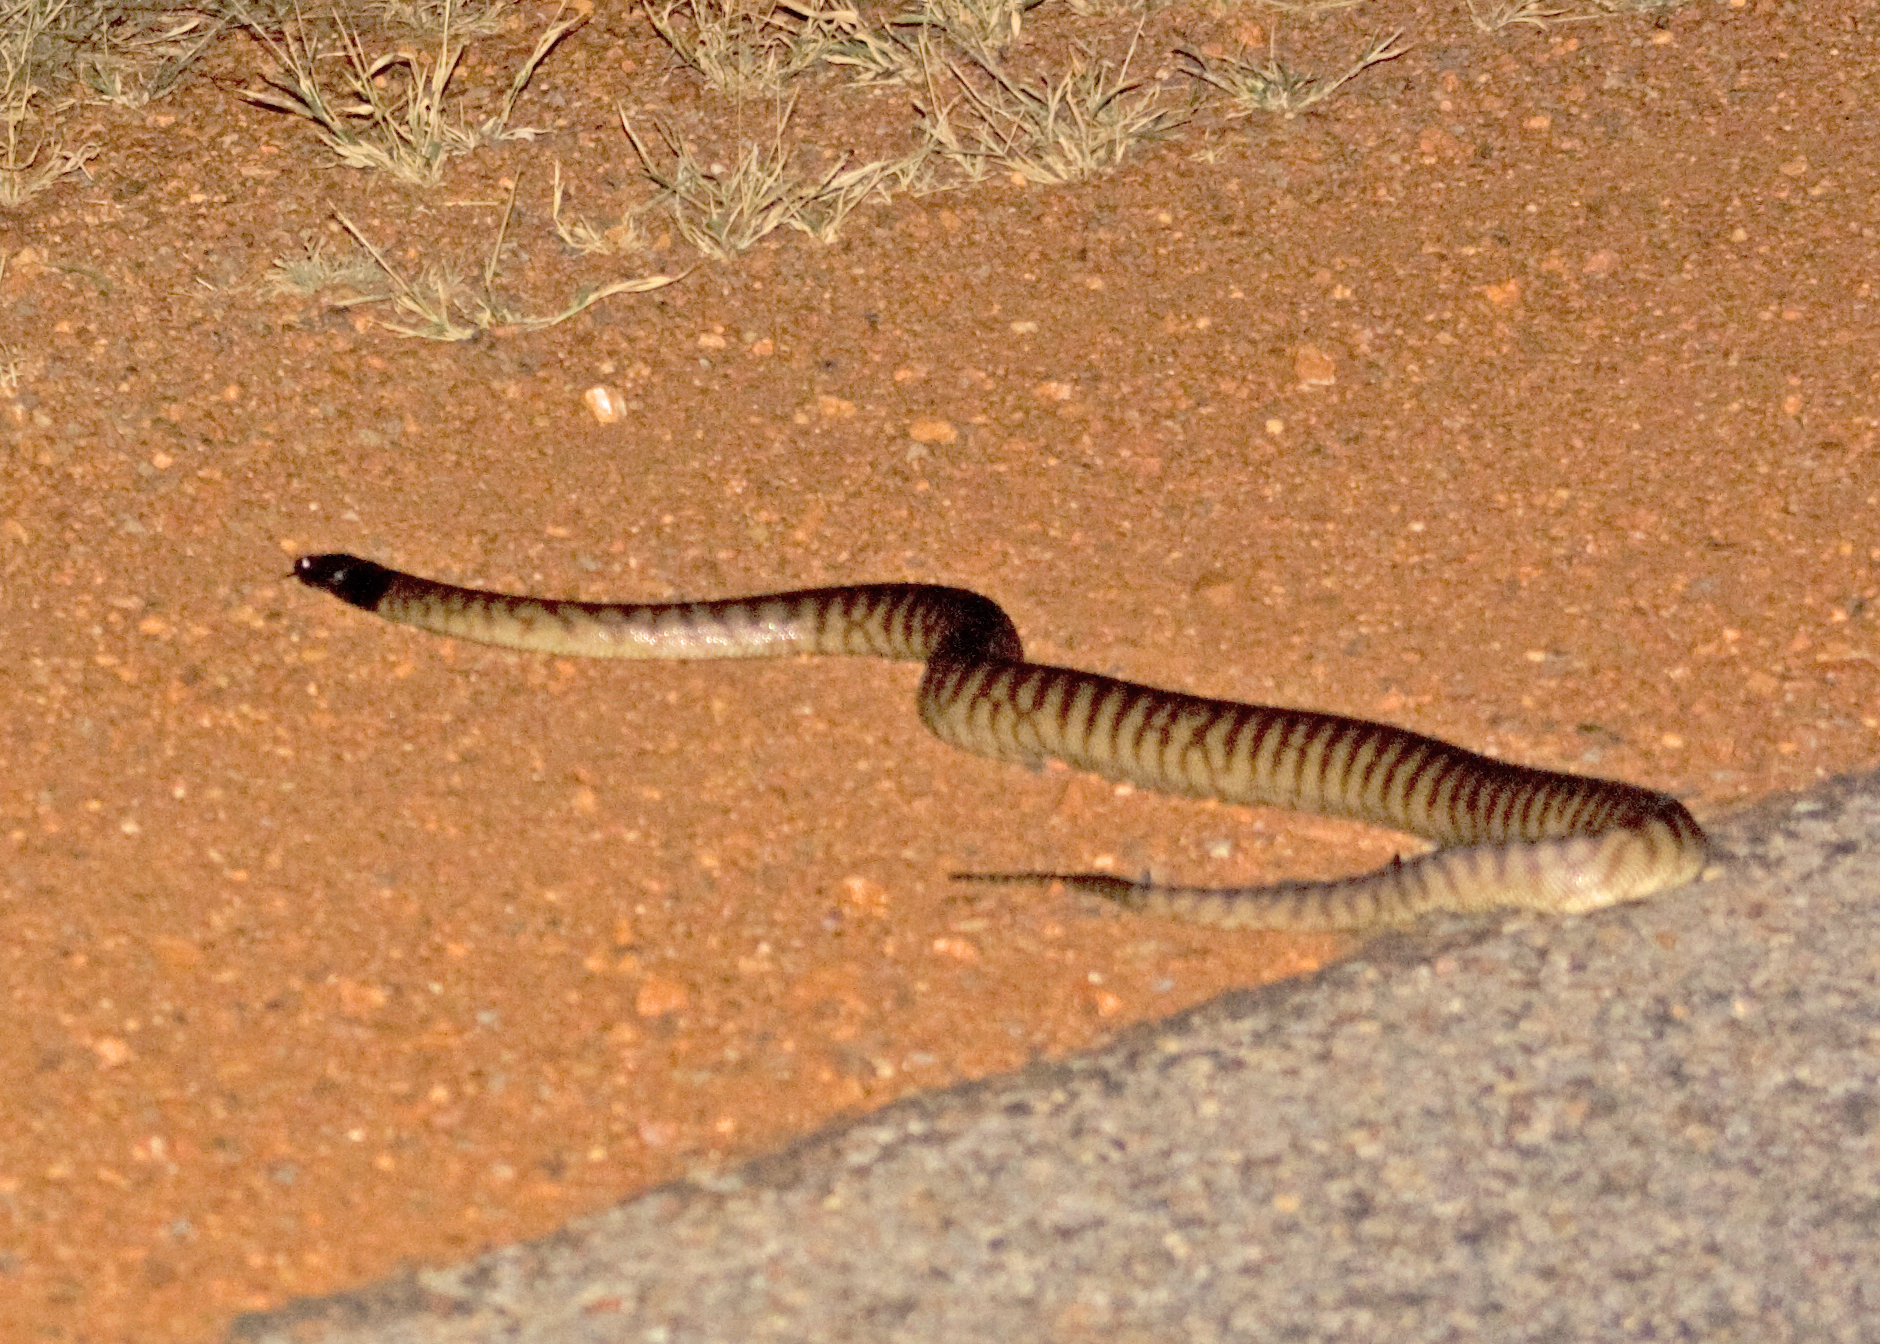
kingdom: Animalia
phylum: Chordata
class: Squamata
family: Pythonidae
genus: Aspidites
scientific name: Aspidites melanocephalus
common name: Black-headed python
